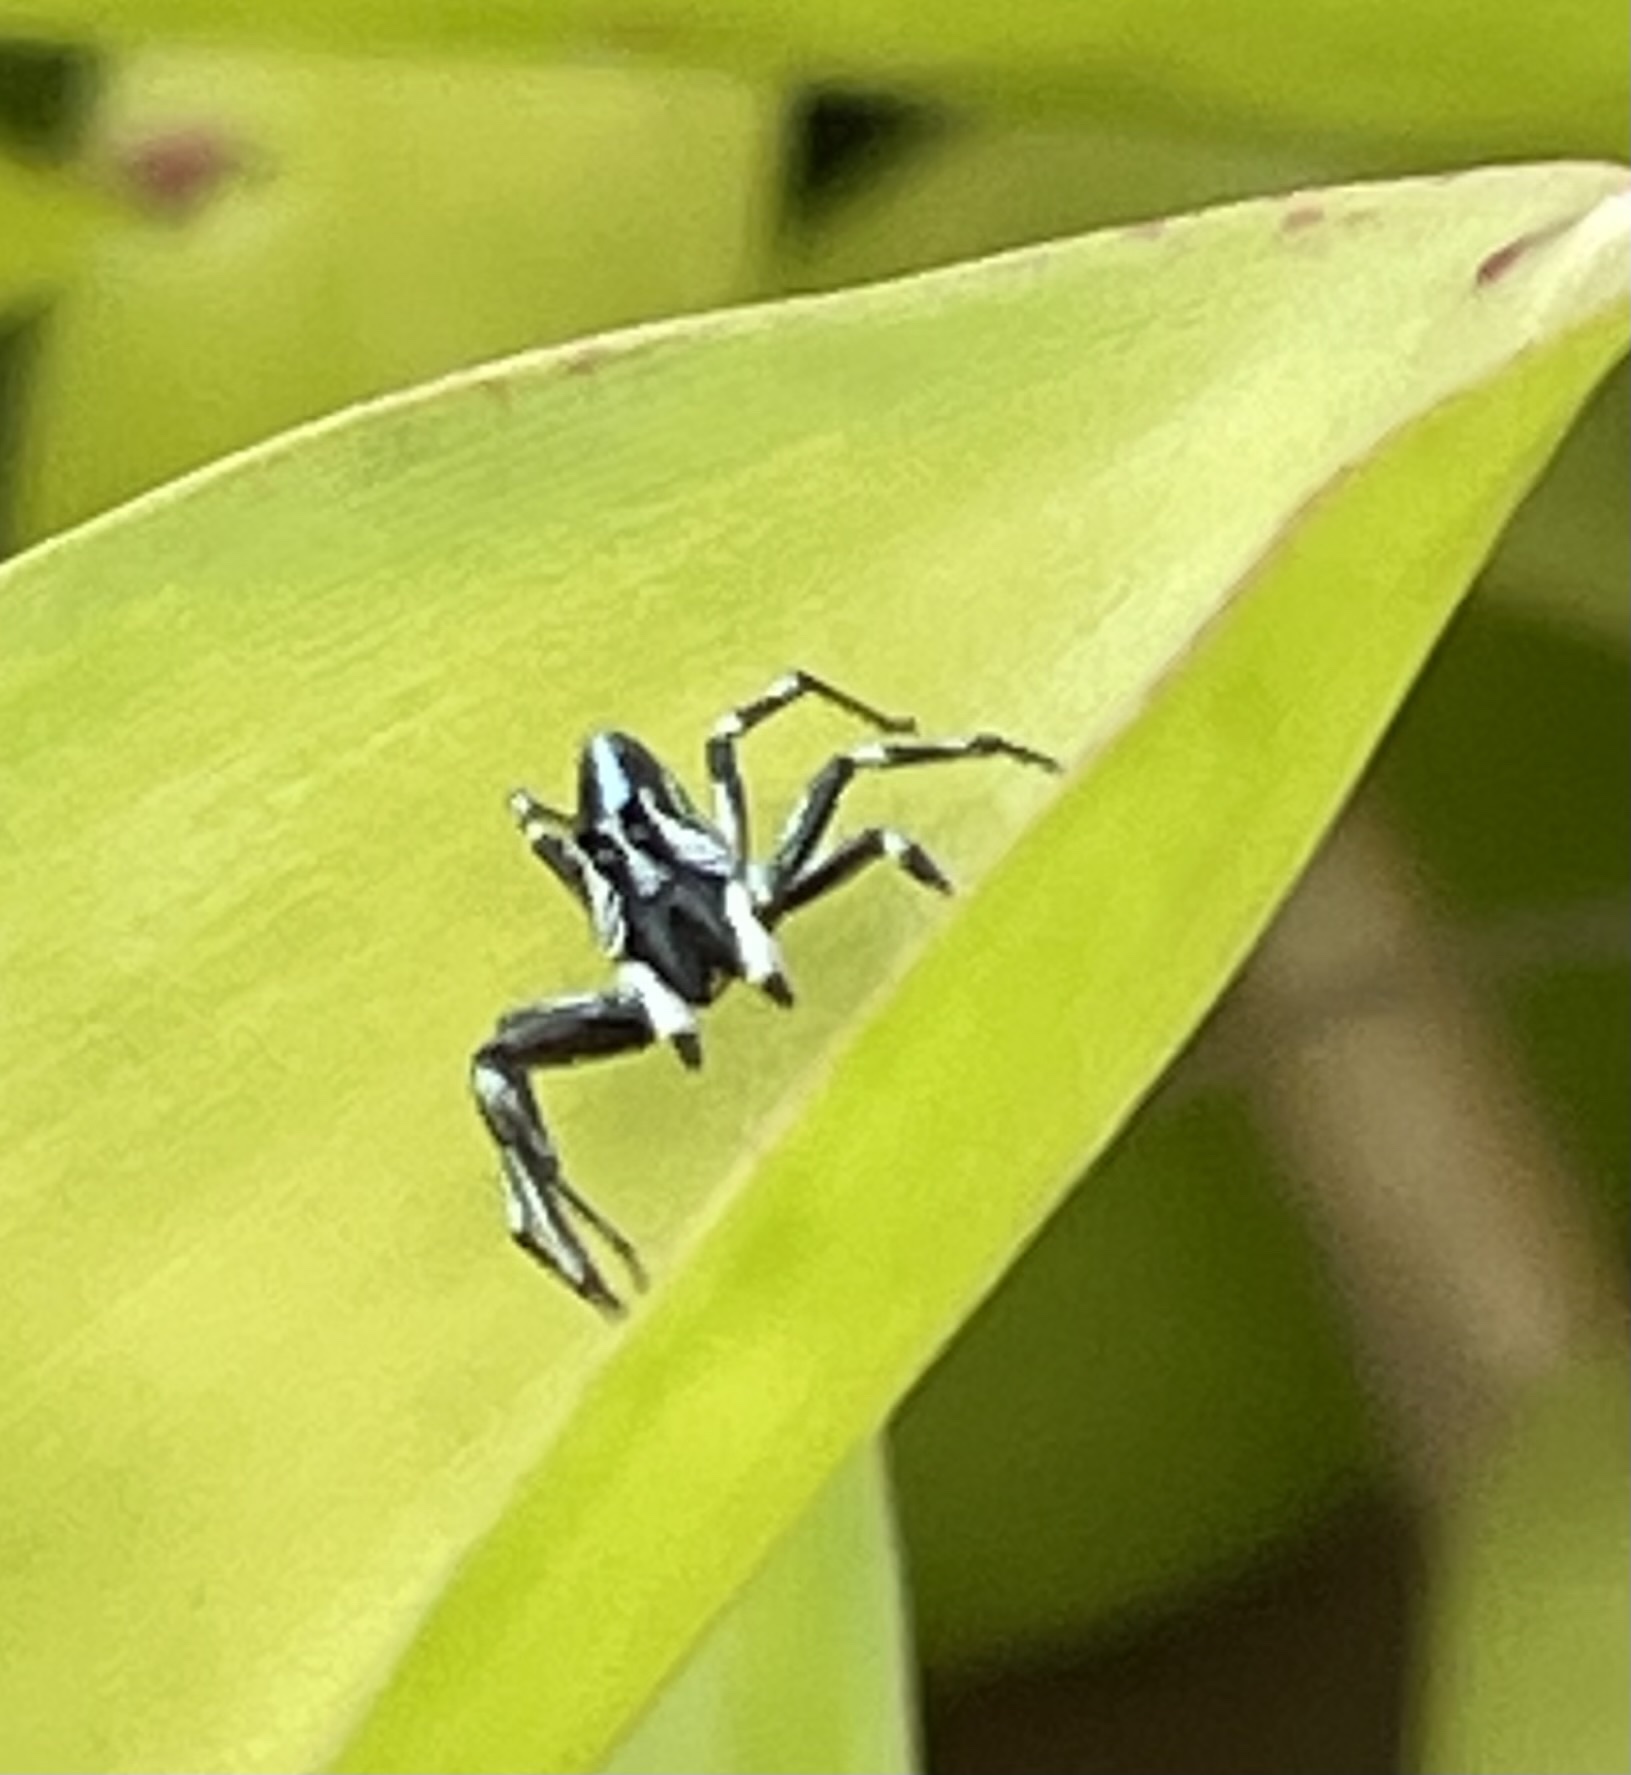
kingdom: Animalia
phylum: Arthropoda
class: Arachnida
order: Araneae
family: Salticidae
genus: Cosmophasis
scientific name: Cosmophasis micarioides
